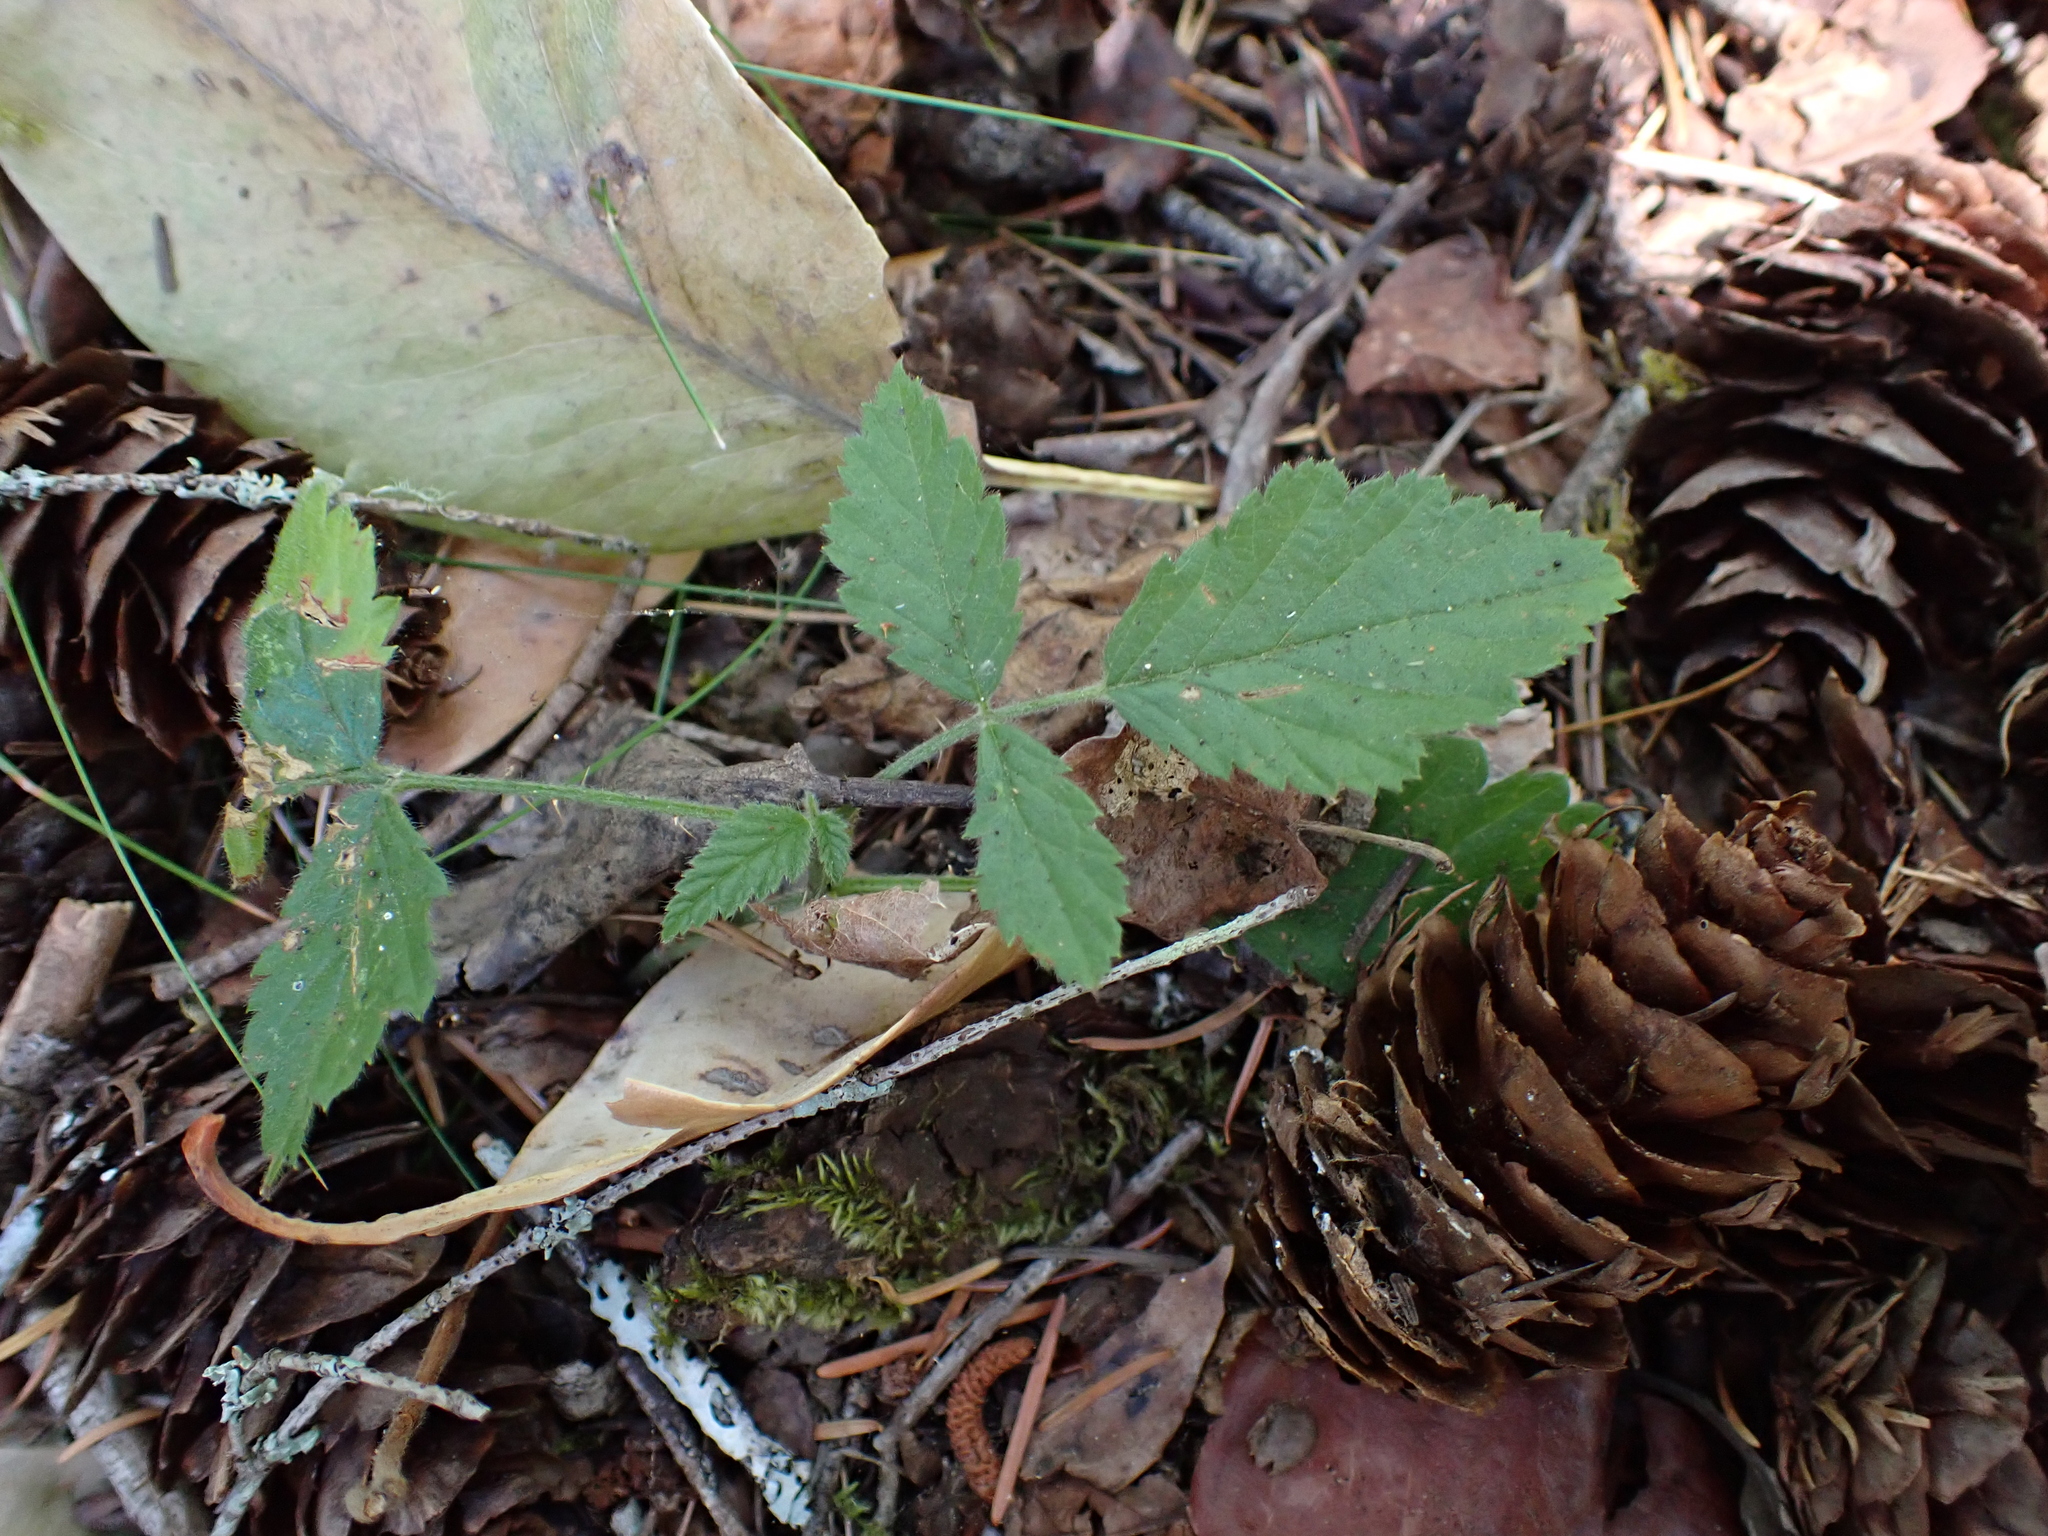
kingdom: Plantae
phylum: Tracheophyta
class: Magnoliopsida
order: Rosales
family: Rosaceae
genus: Rubus
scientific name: Rubus ursinus
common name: Pacific blackberry
